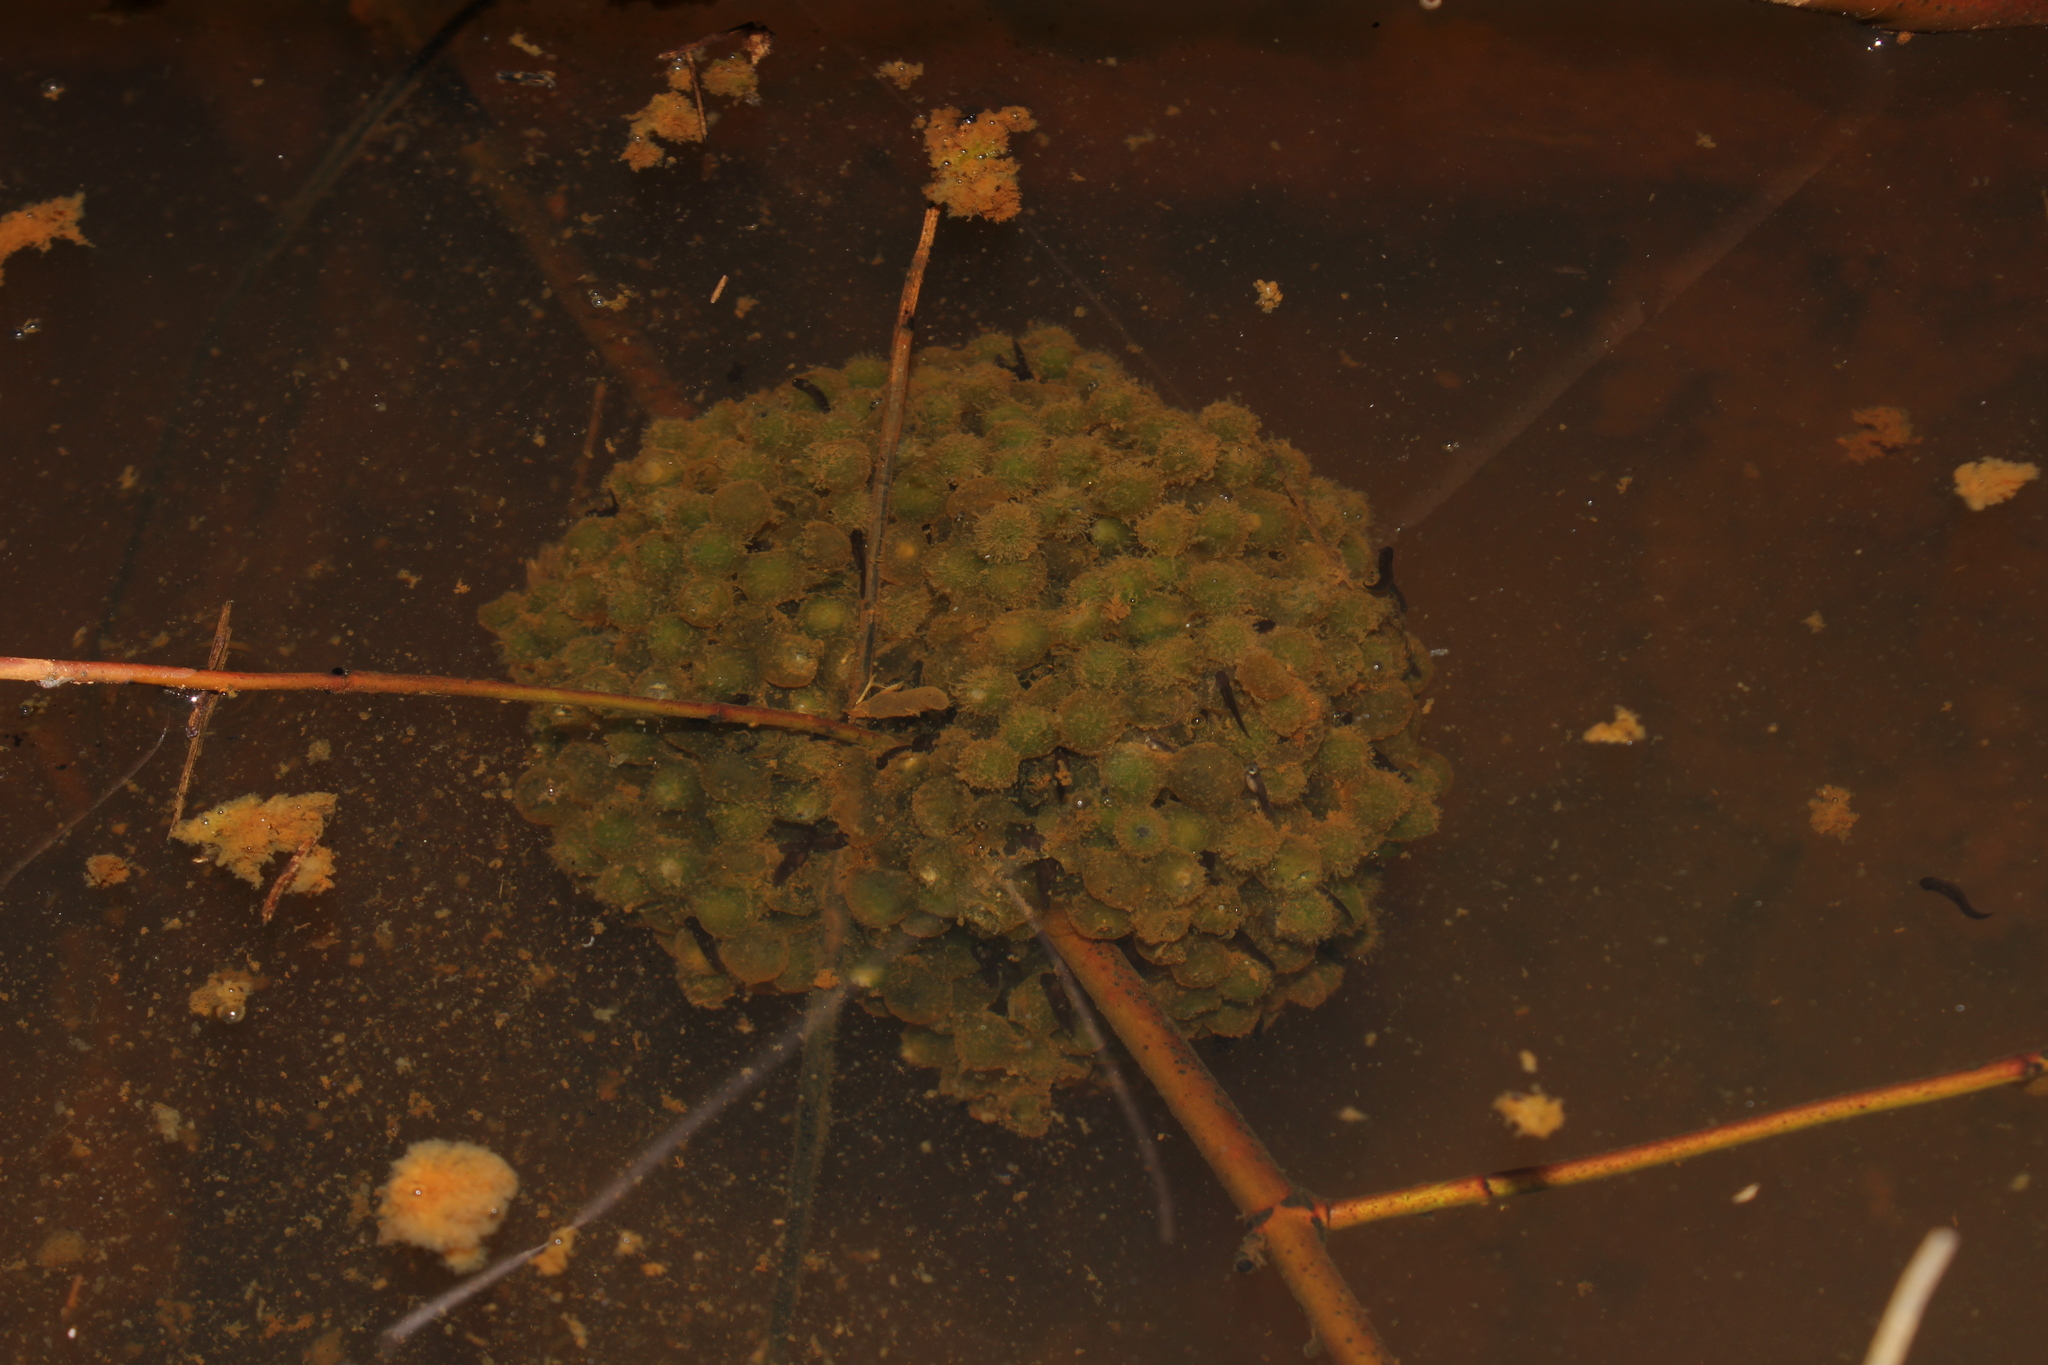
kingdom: Animalia
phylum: Chordata
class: Amphibia
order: Anura
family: Ranidae
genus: Lithobates
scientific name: Lithobates sylvaticus
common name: Wood frog
